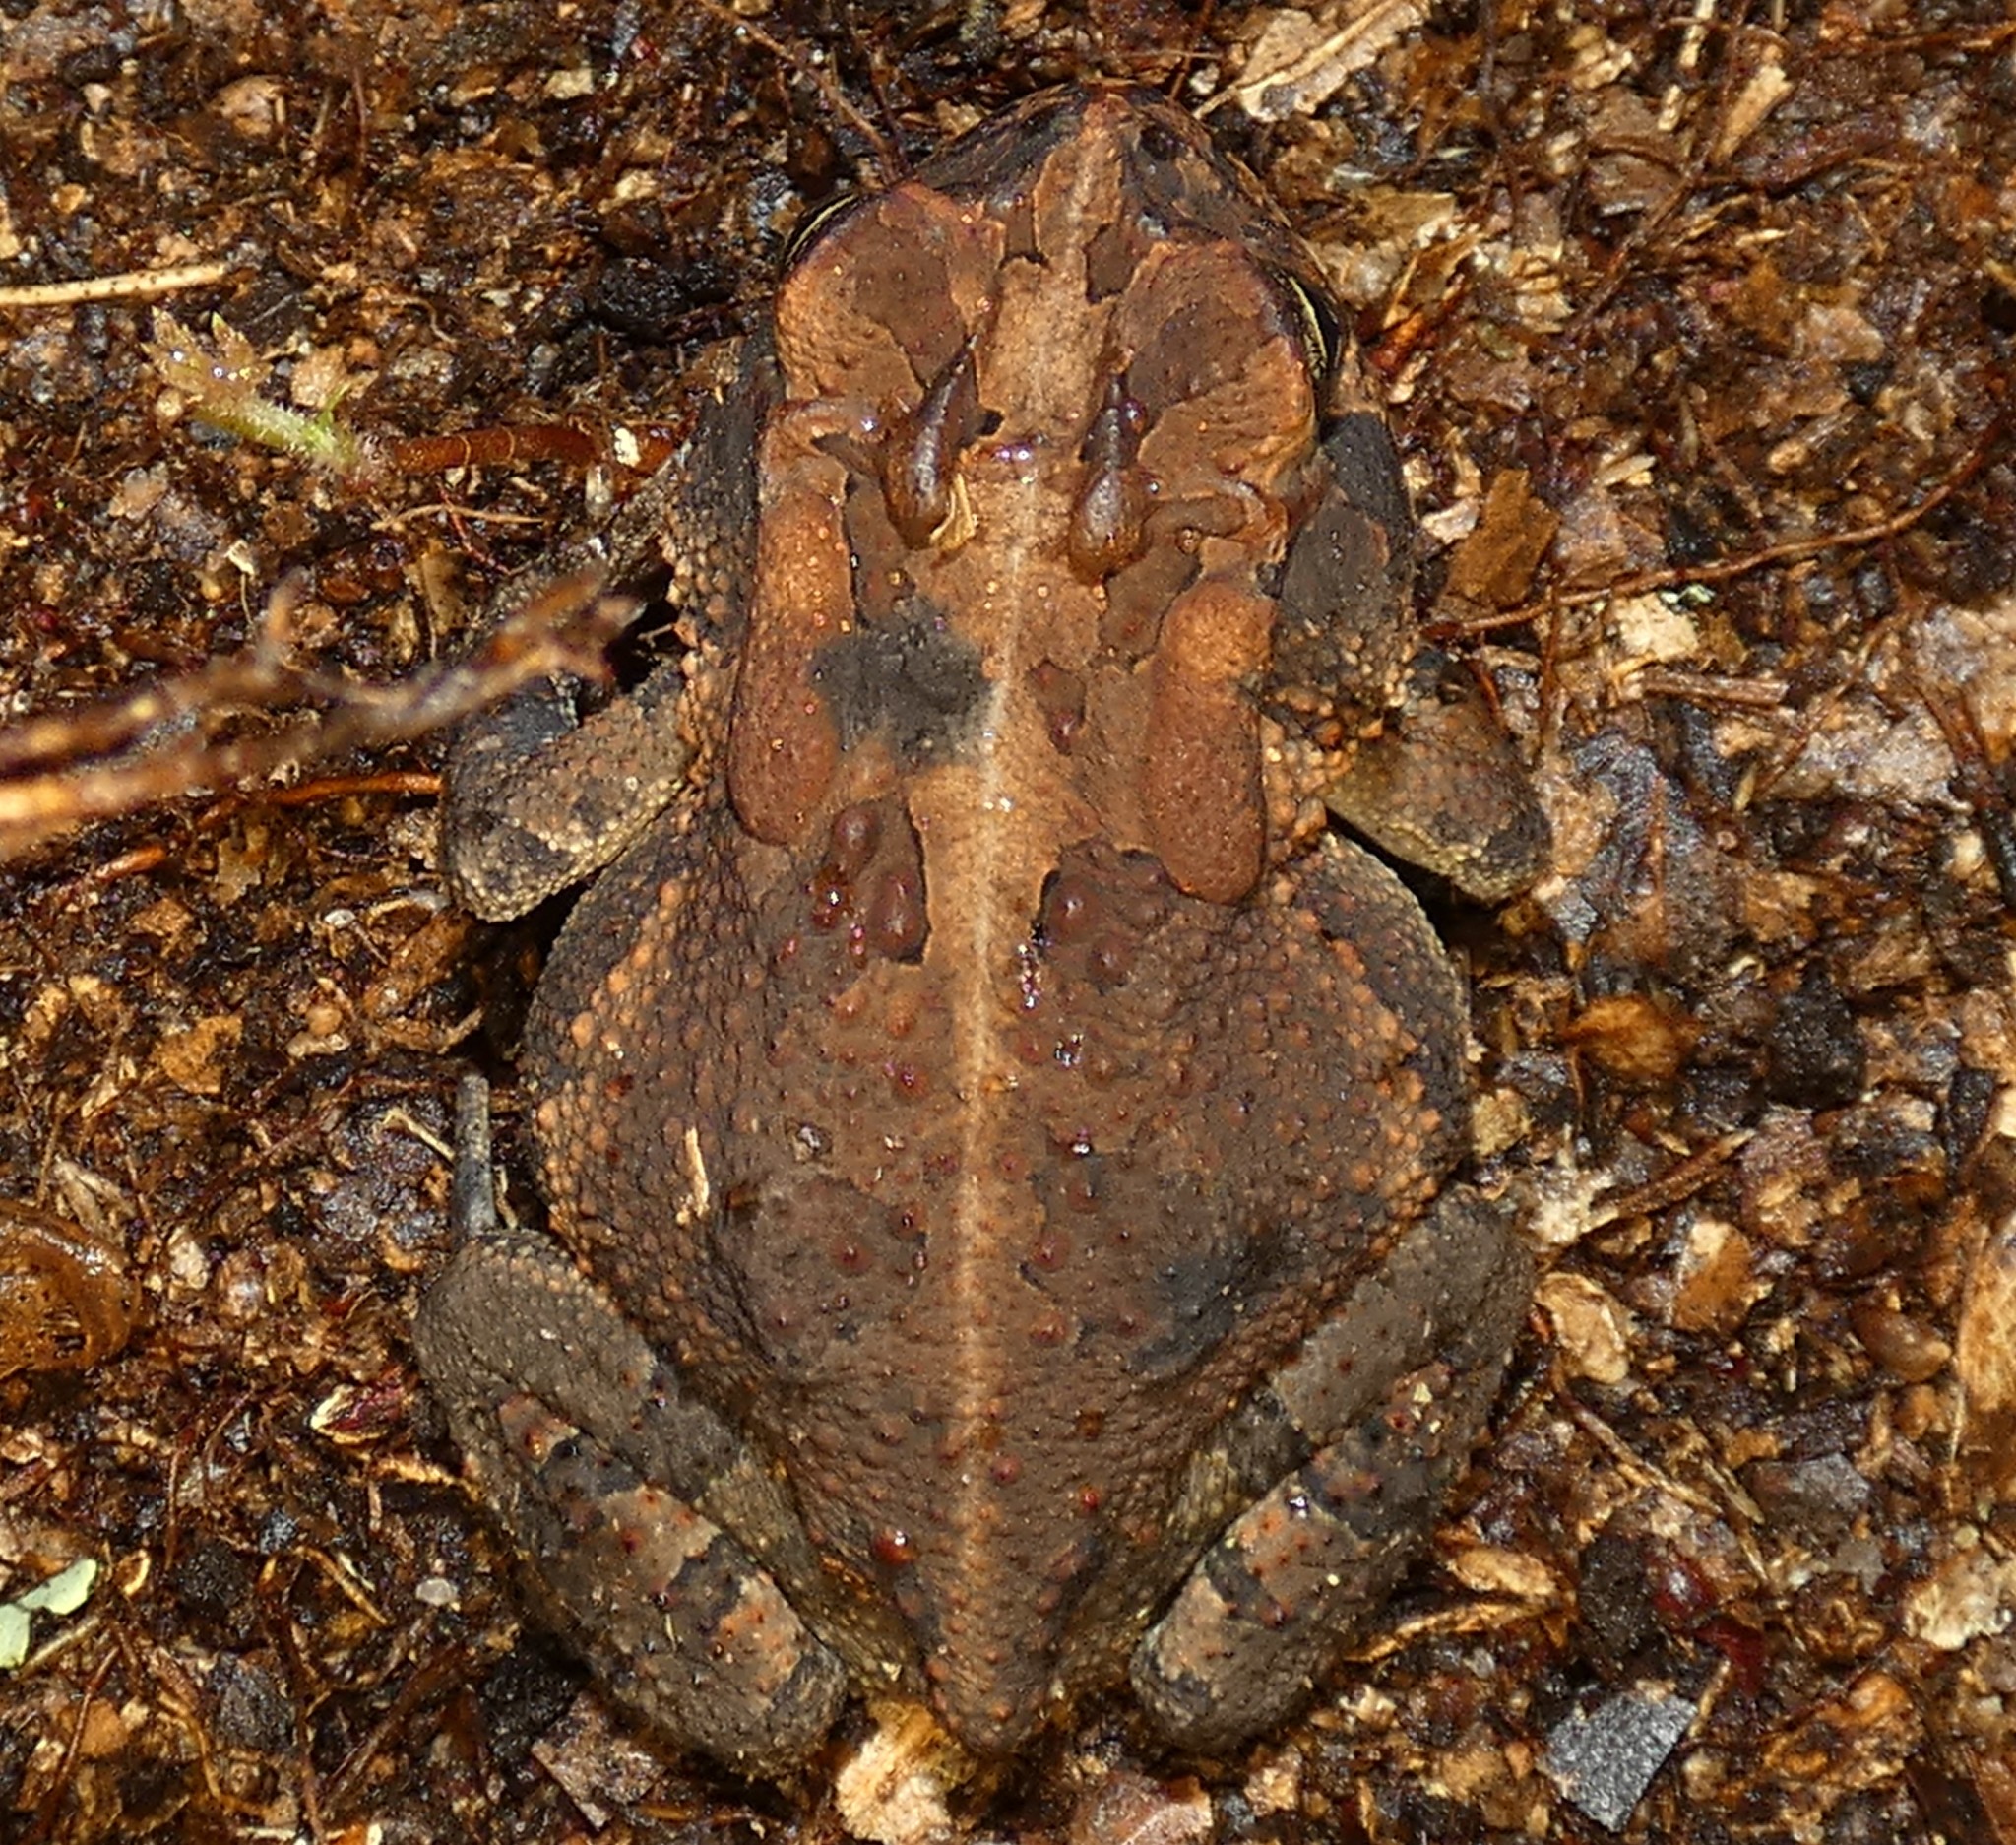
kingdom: Animalia
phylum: Chordata
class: Amphibia
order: Anura
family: Bufonidae
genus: Anaxyrus
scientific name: Anaxyrus terrestris
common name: Southern toad
